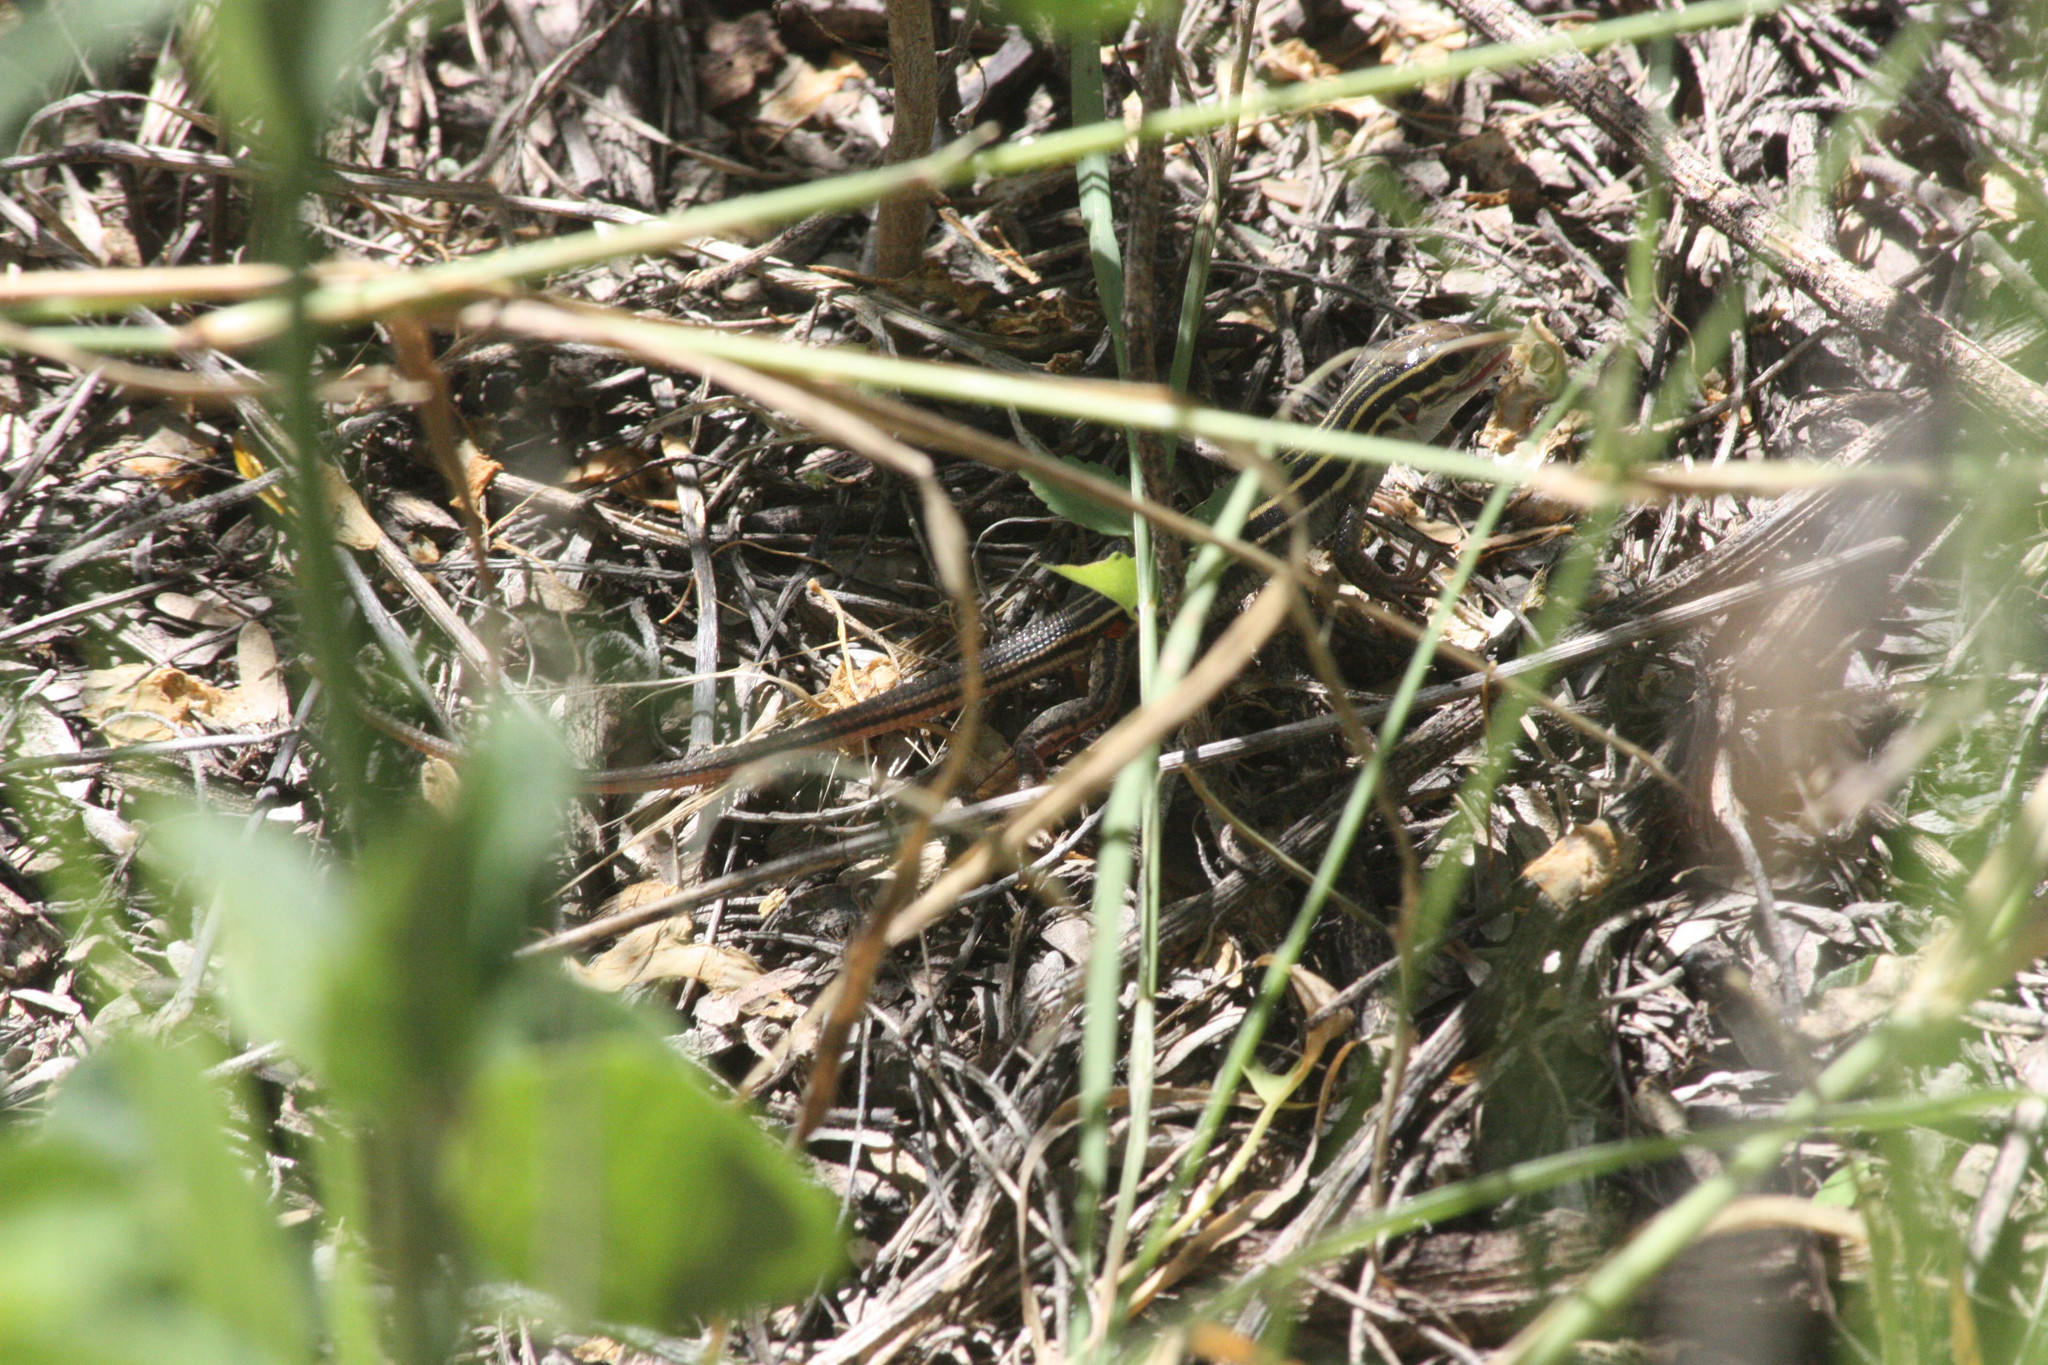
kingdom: Animalia
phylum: Chordata
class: Squamata
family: Teiidae
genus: Aspidoscelis
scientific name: Aspidoscelis uniparens
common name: Desert grassland whiptail
